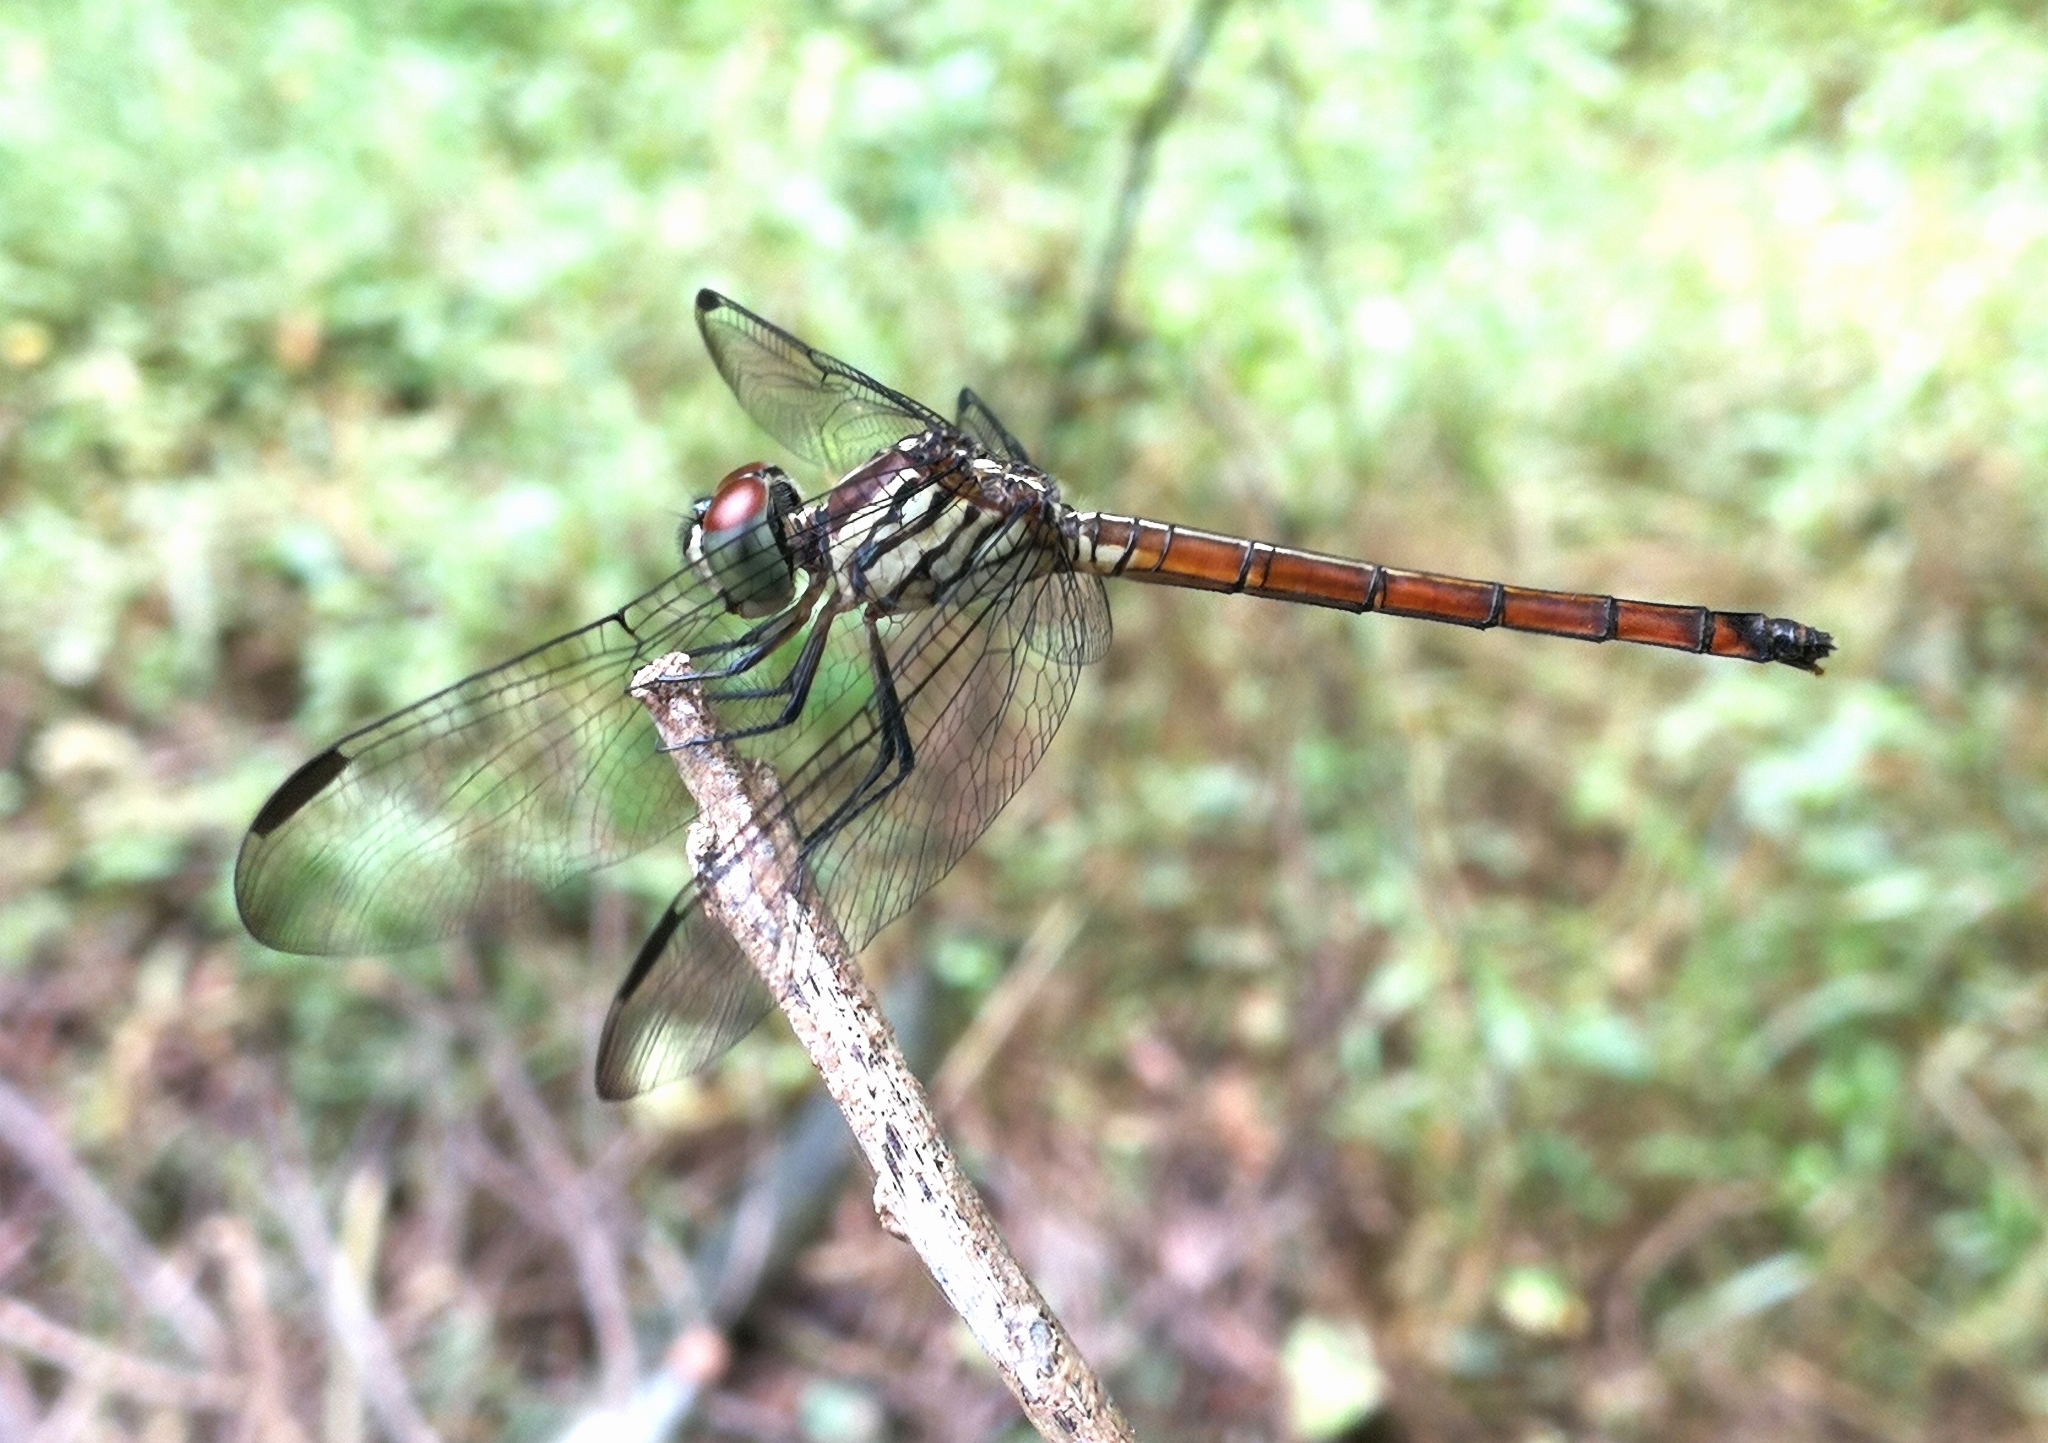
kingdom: Animalia
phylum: Arthropoda
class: Insecta
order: Odonata
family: Libellulidae
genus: Lathrecista
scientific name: Lathrecista asiatica
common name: Scarlet grenadier
